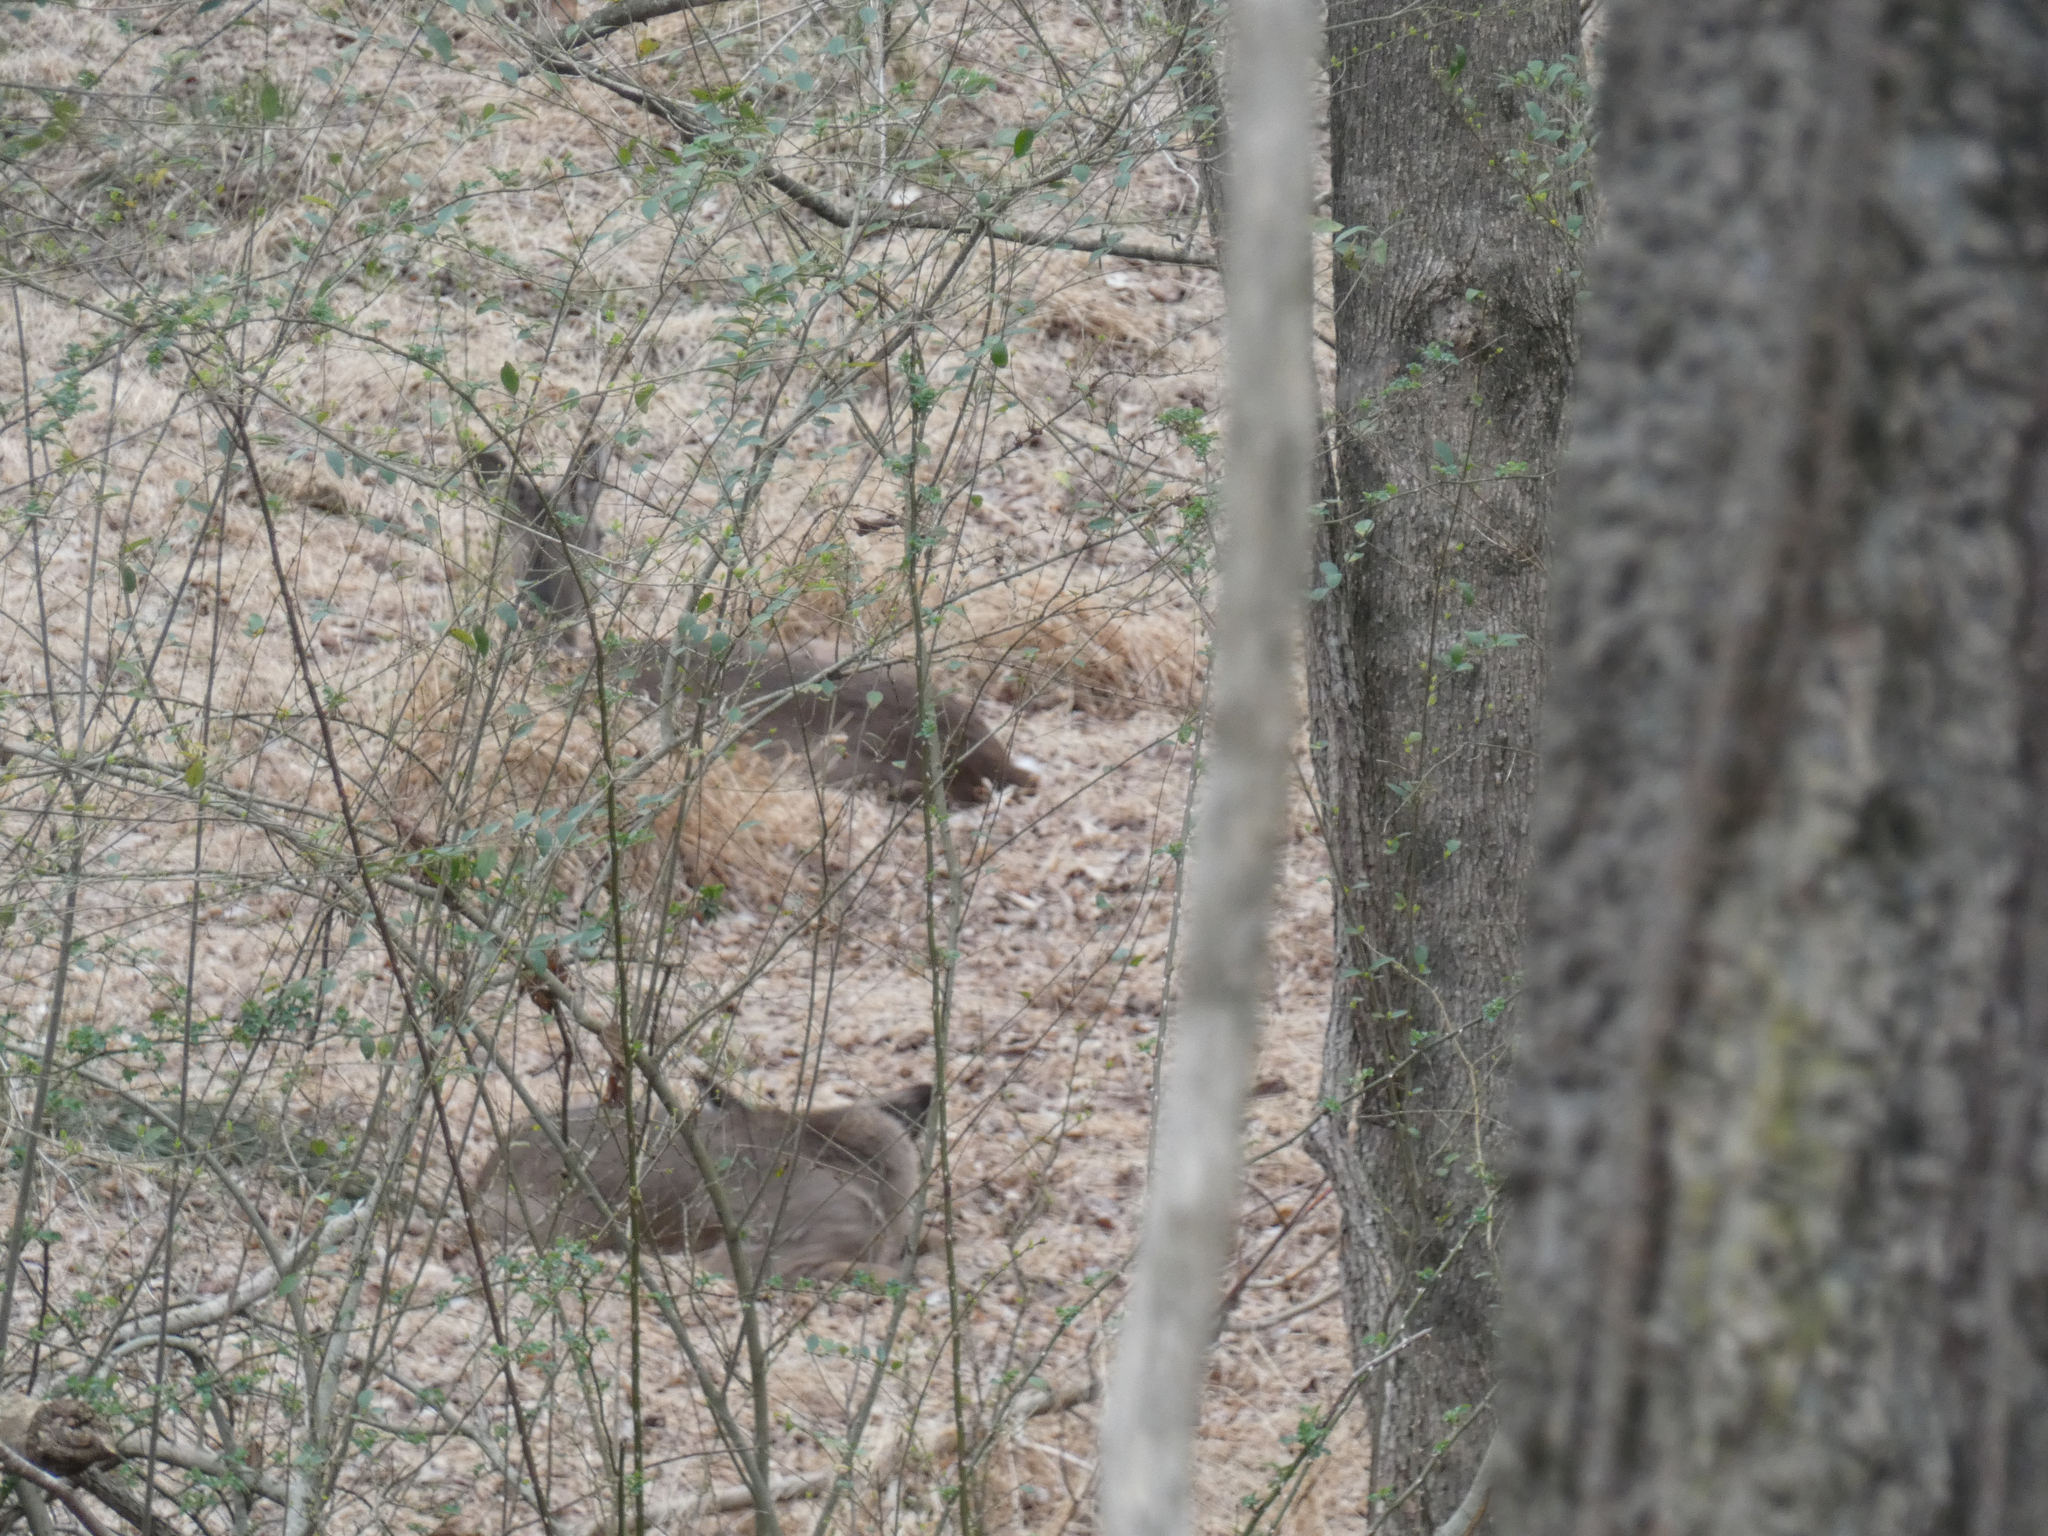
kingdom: Animalia
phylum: Chordata
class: Mammalia
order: Artiodactyla
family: Cervidae
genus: Odocoileus
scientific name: Odocoileus virginianus
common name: White-tailed deer
